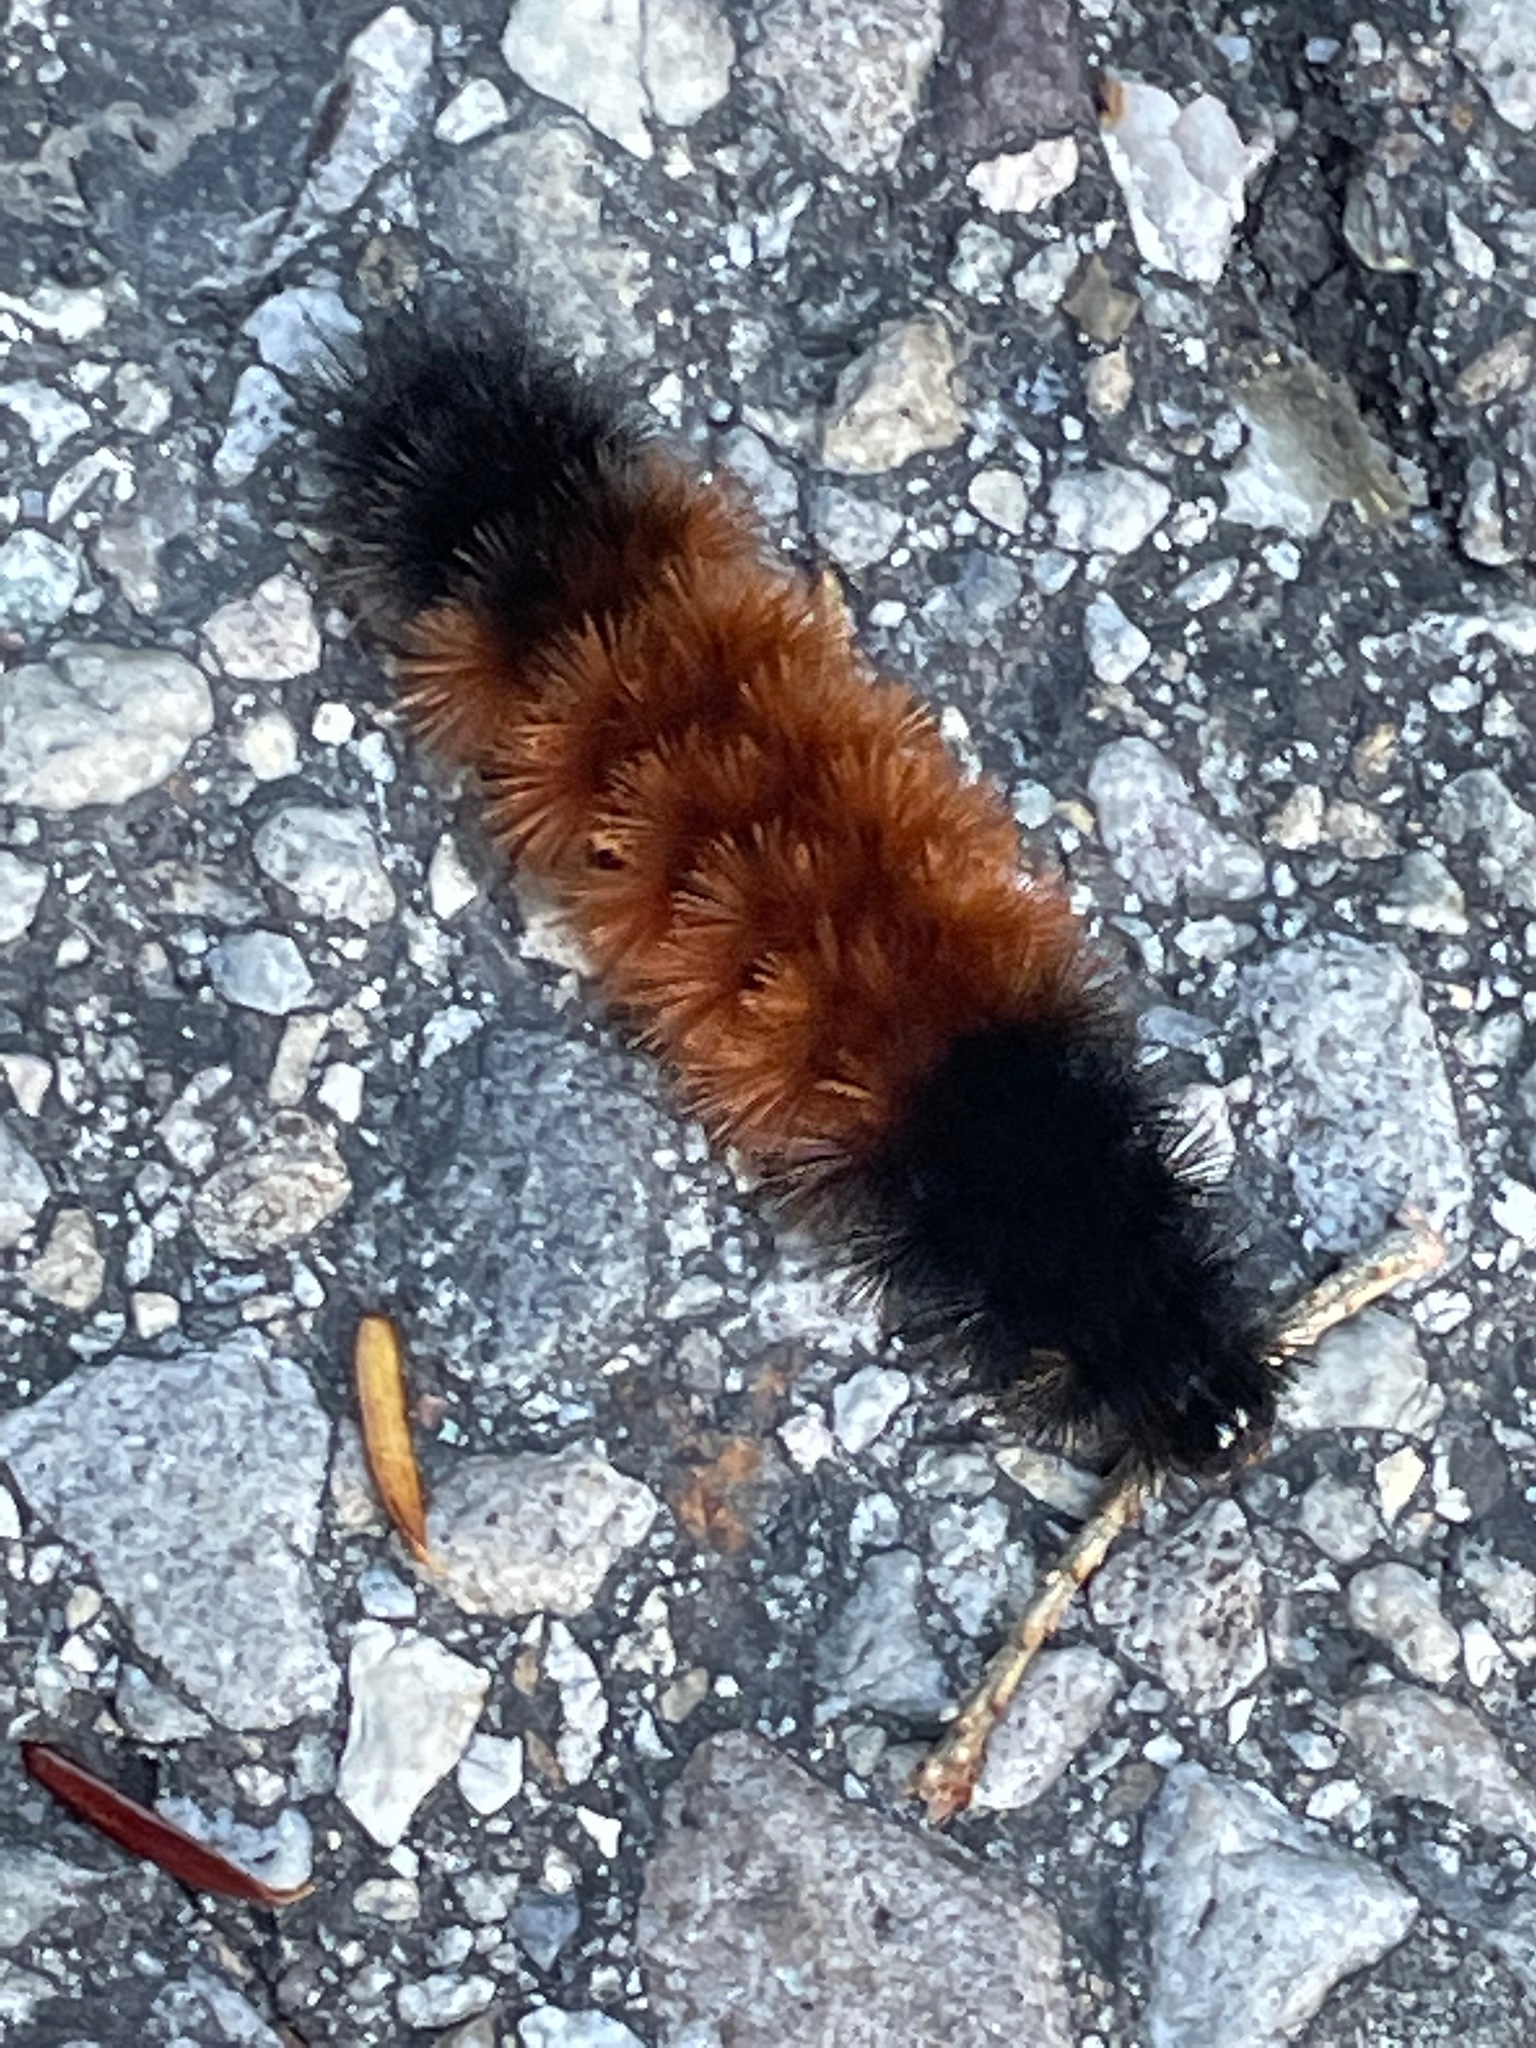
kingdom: Animalia
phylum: Arthropoda
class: Insecta
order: Lepidoptera
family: Erebidae
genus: Pyrrharctia
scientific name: Pyrrharctia isabella
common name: Isabella tiger moth
